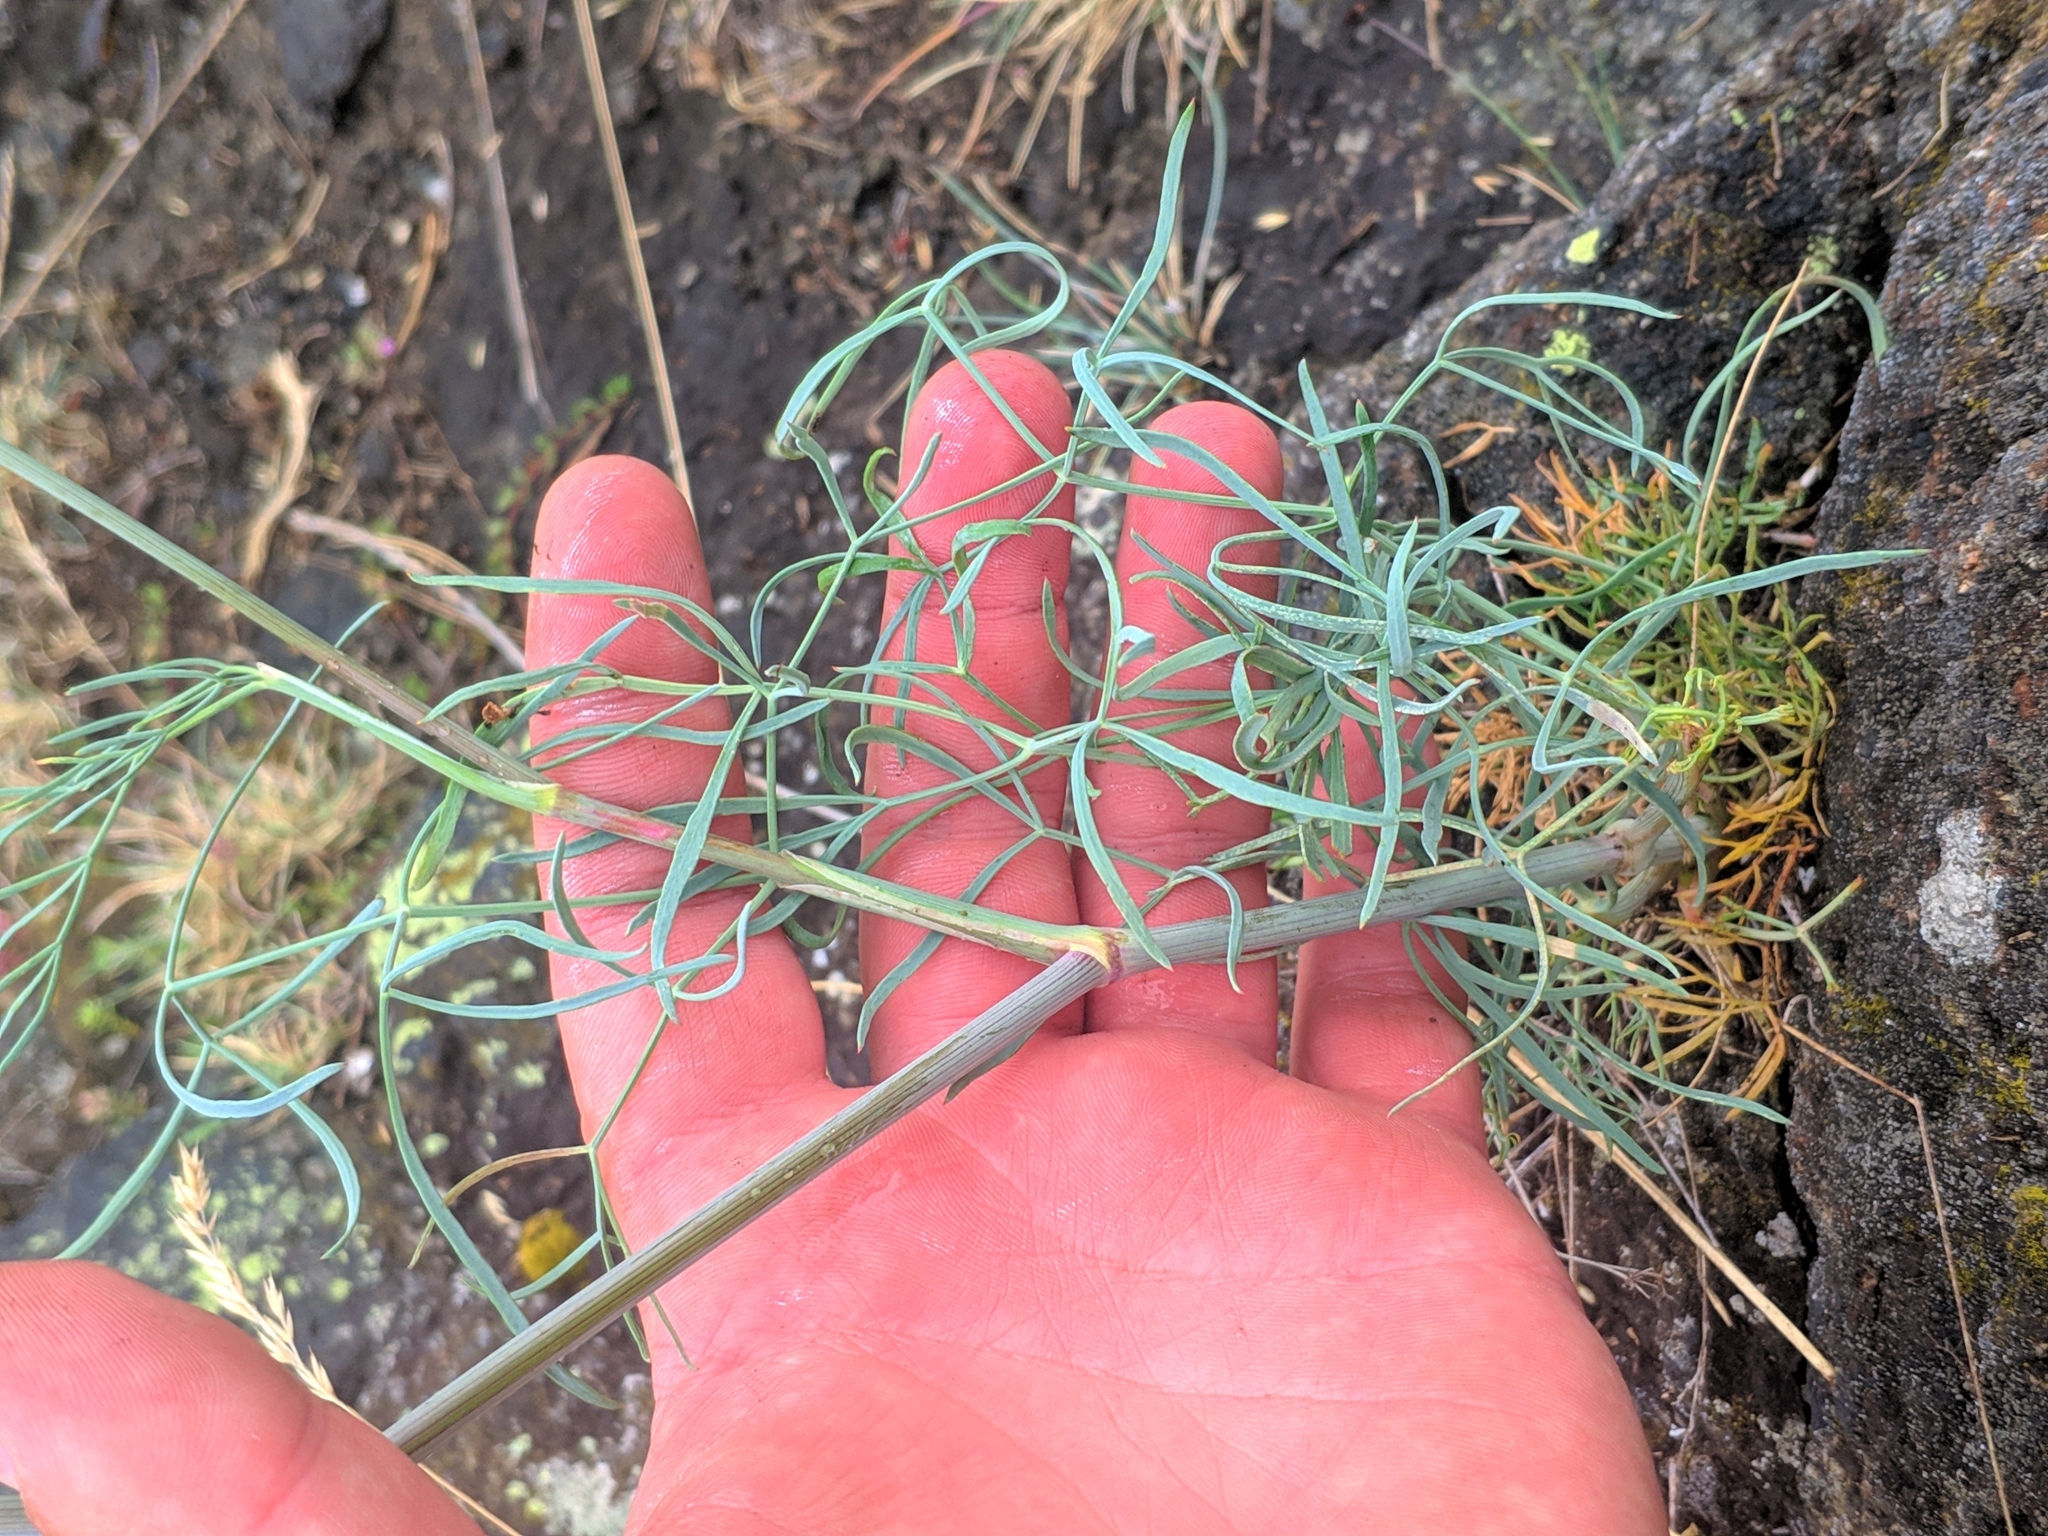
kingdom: Plantae
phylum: Tracheophyta
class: Magnoliopsida
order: Apiales
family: Apiaceae
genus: Seseli
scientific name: Seseli osseum
